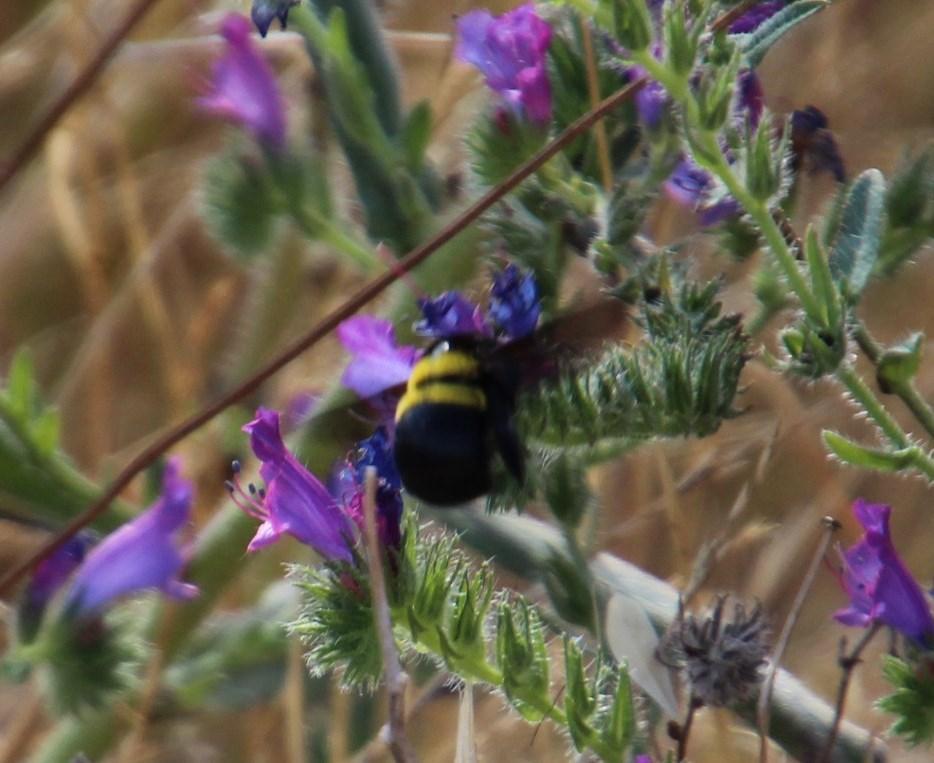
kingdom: Plantae
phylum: Tracheophyta
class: Magnoliopsida
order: Boraginales
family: Boraginaceae
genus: Echium
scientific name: Echium plantagineum
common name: Purple viper's-bugloss
